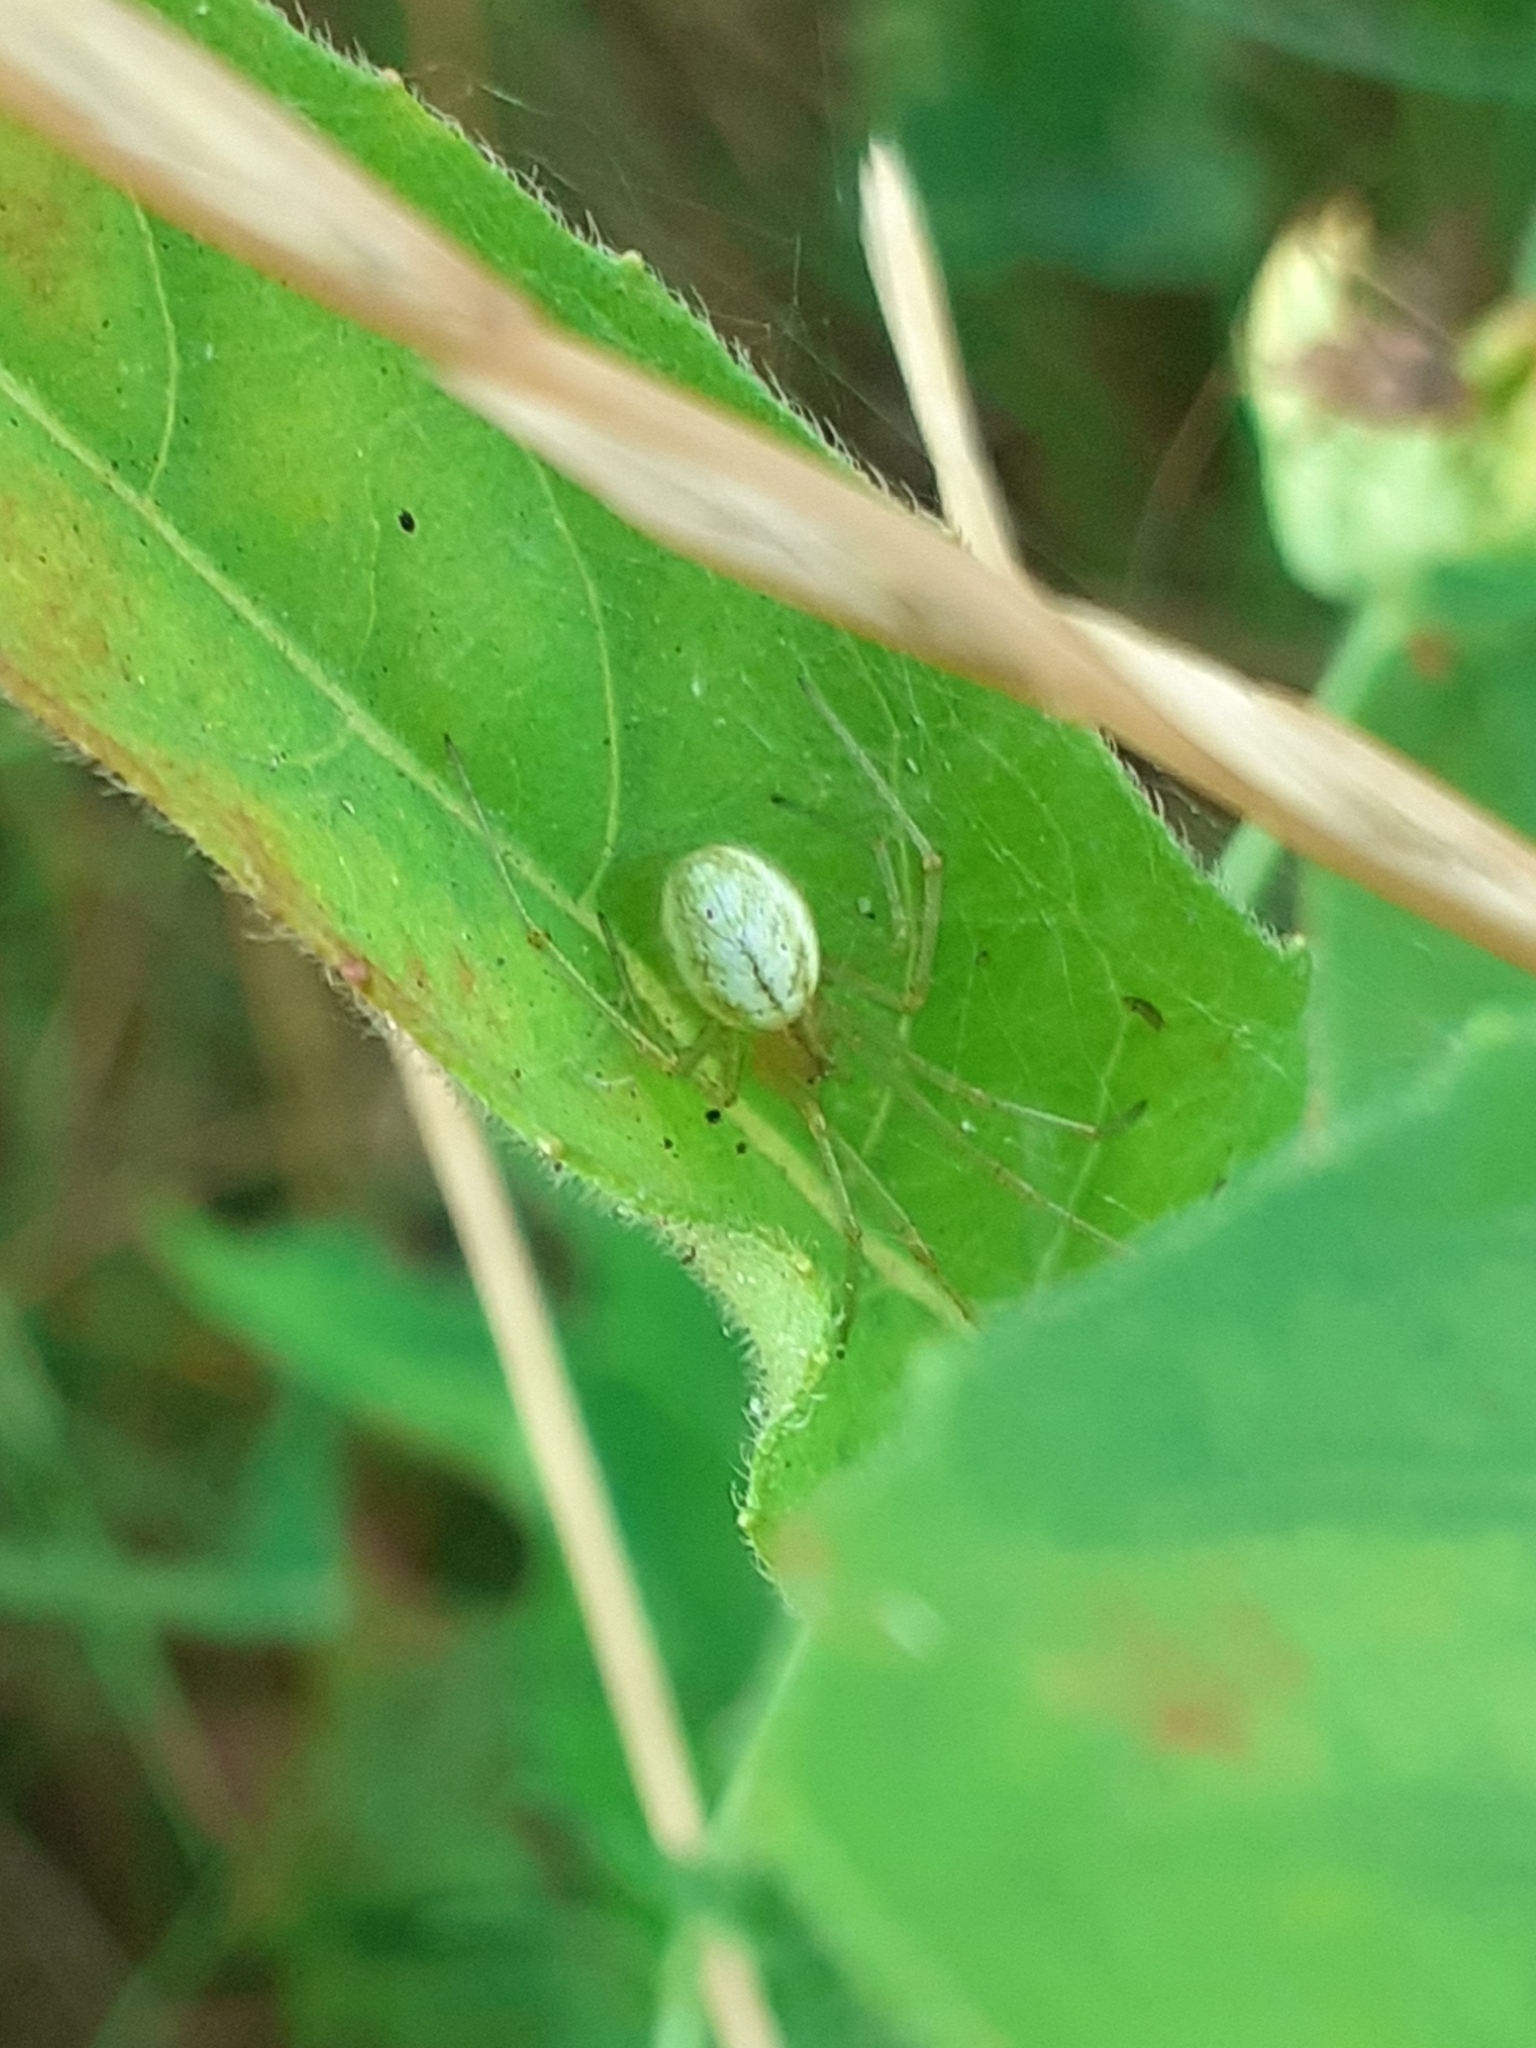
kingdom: Animalia
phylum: Arthropoda
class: Arachnida
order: Araneae
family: Theridiidae
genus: Enoplognatha
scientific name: Enoplognatha
